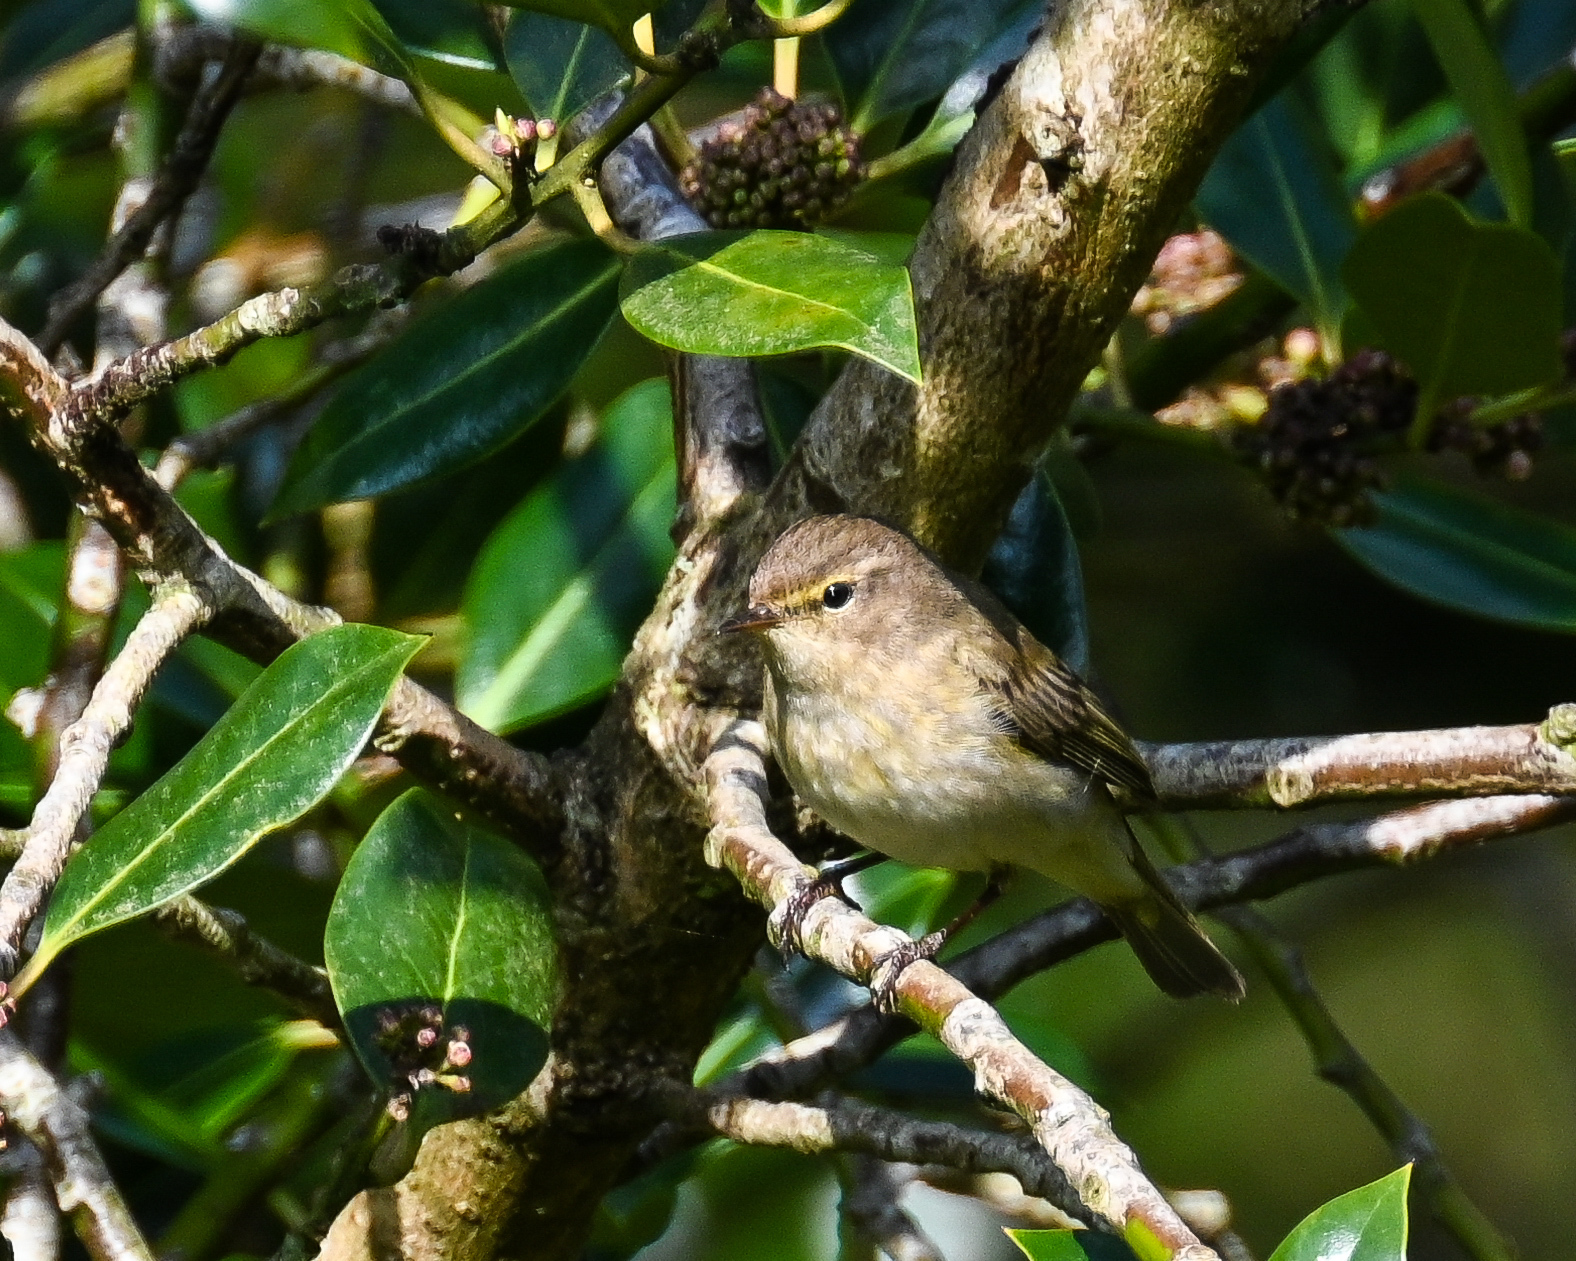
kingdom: Animalia
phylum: Chordata
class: Aves
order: Passeriformes
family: Phylloscopidae
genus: Phylloscopus
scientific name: Phylloscopus collybita
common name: Common chiffchaff
